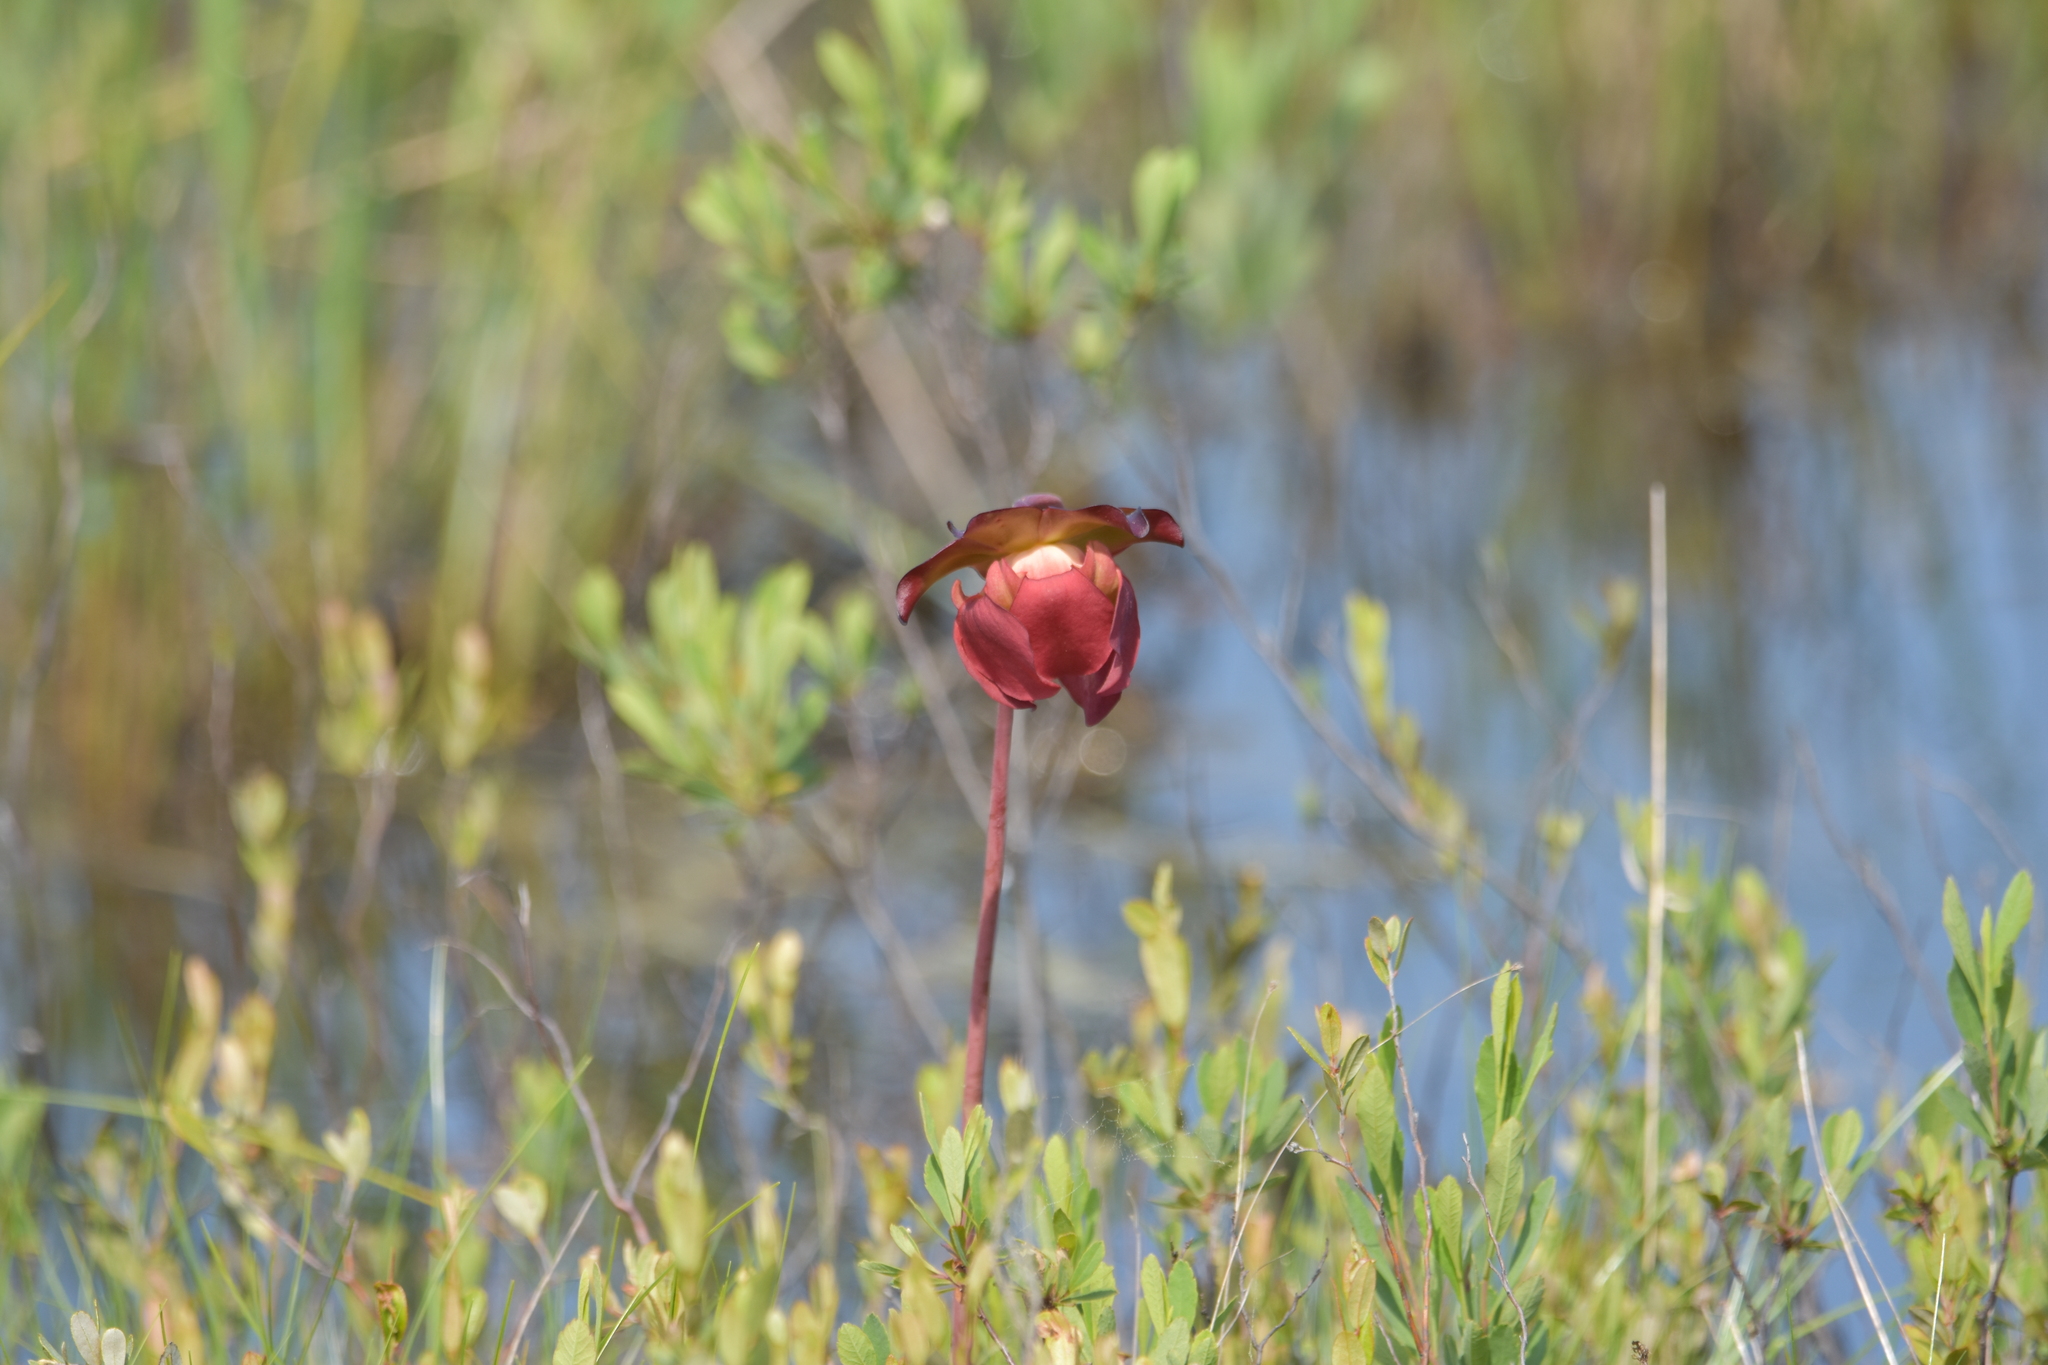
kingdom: Plantae
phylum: Tracheophyta
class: Magnoliopsida
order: Ericales
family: Sarraceniaceae
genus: Sarracenia
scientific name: Sarracenia purpurea
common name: Pitcherplant
